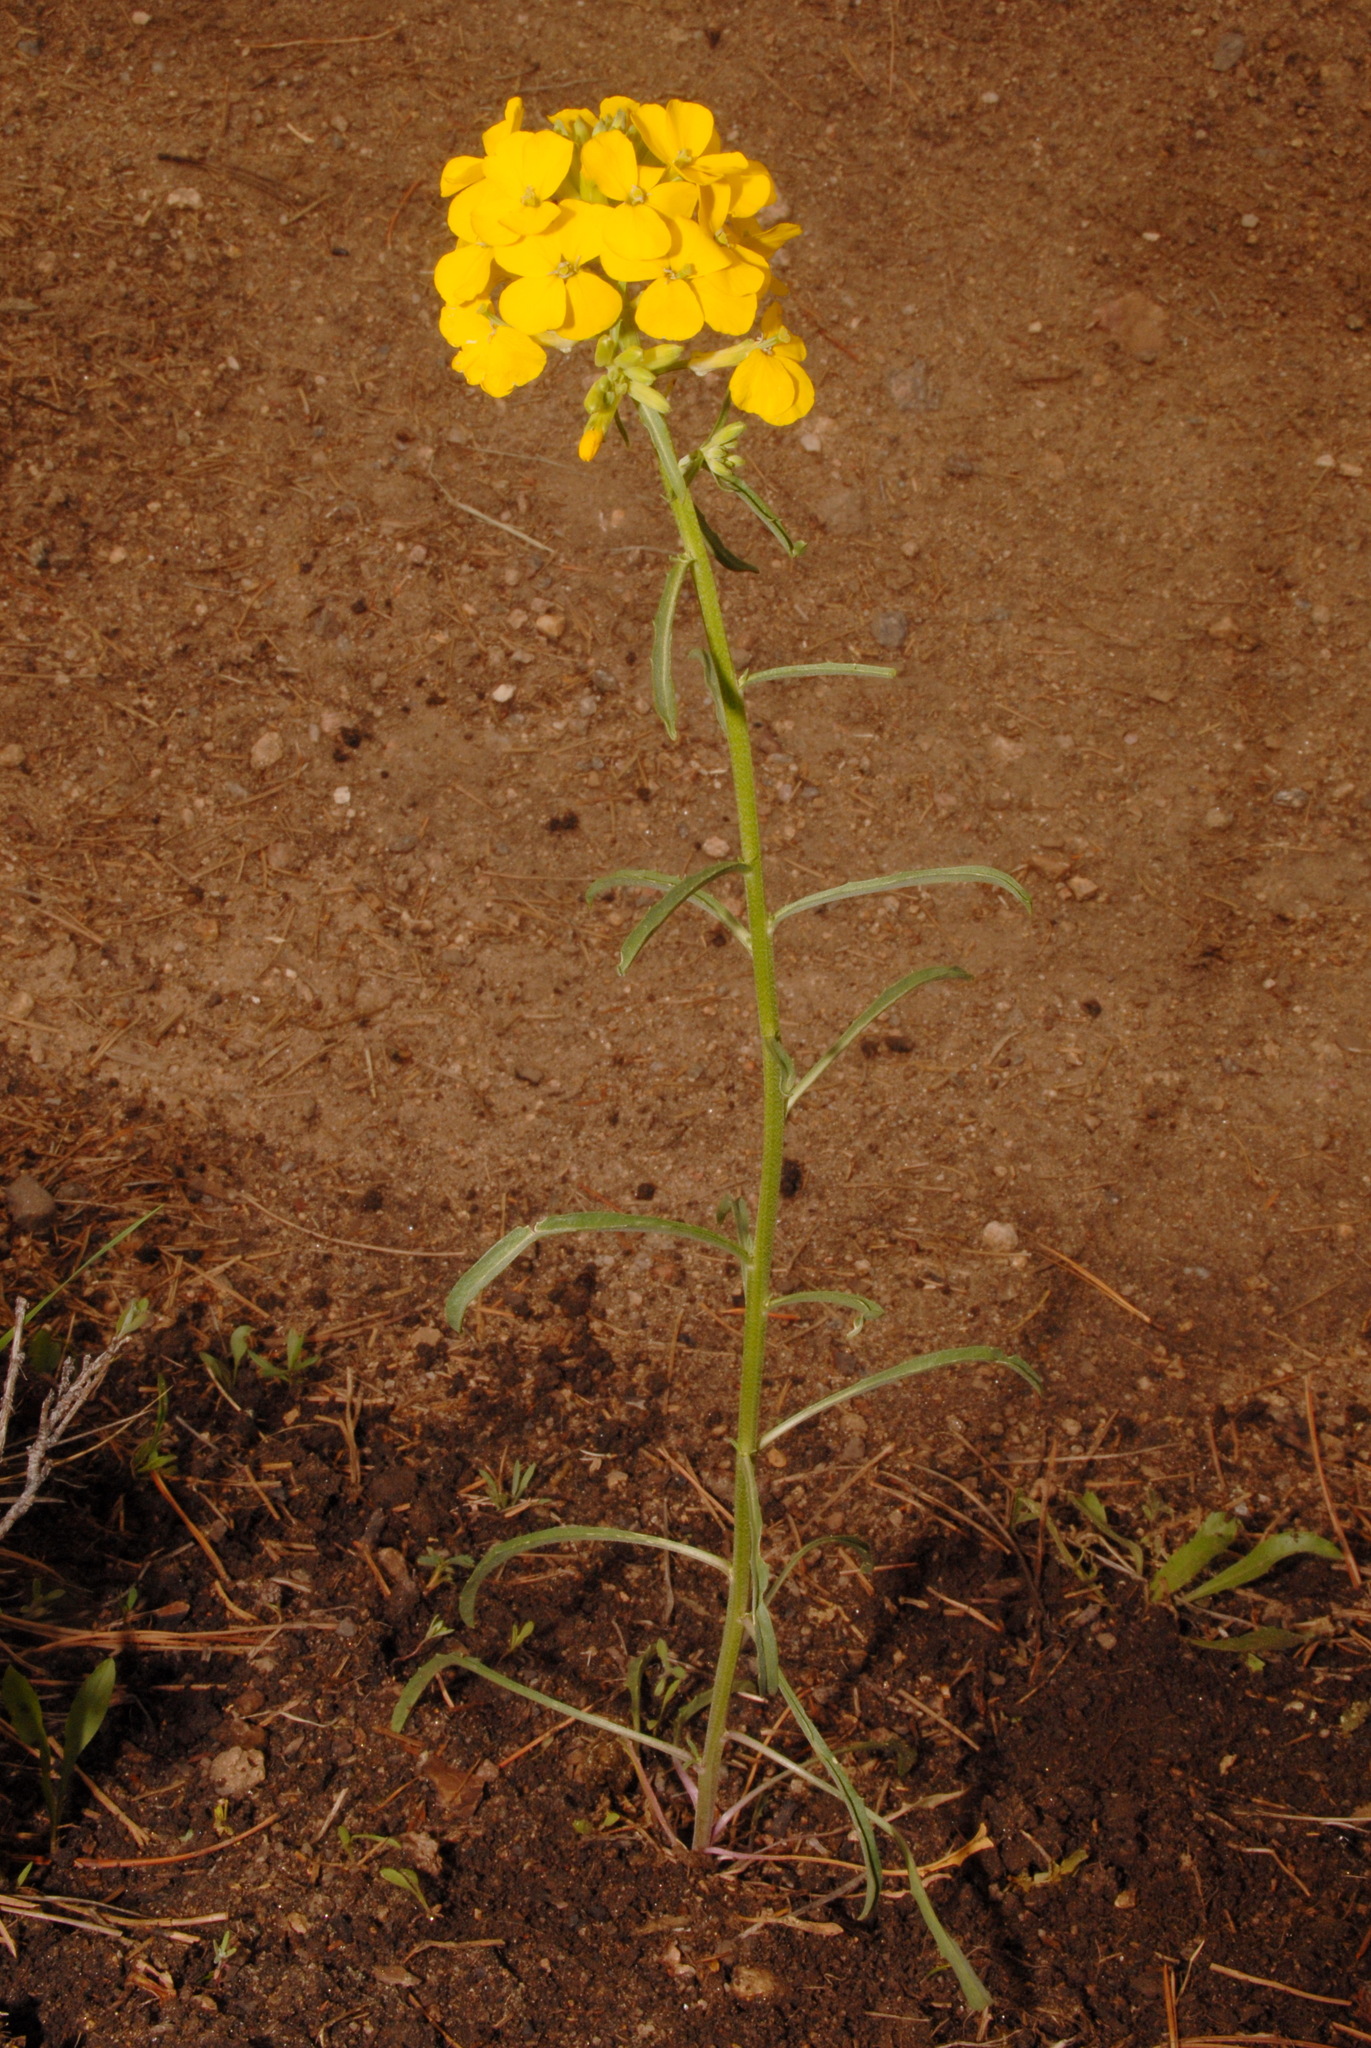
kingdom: Plantae
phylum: Tracheophyta
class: Magnoliopsida
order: Brassicales
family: Brassicaceae
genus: Erysimum
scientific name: Erysimum capitatum
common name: Western wallflower
